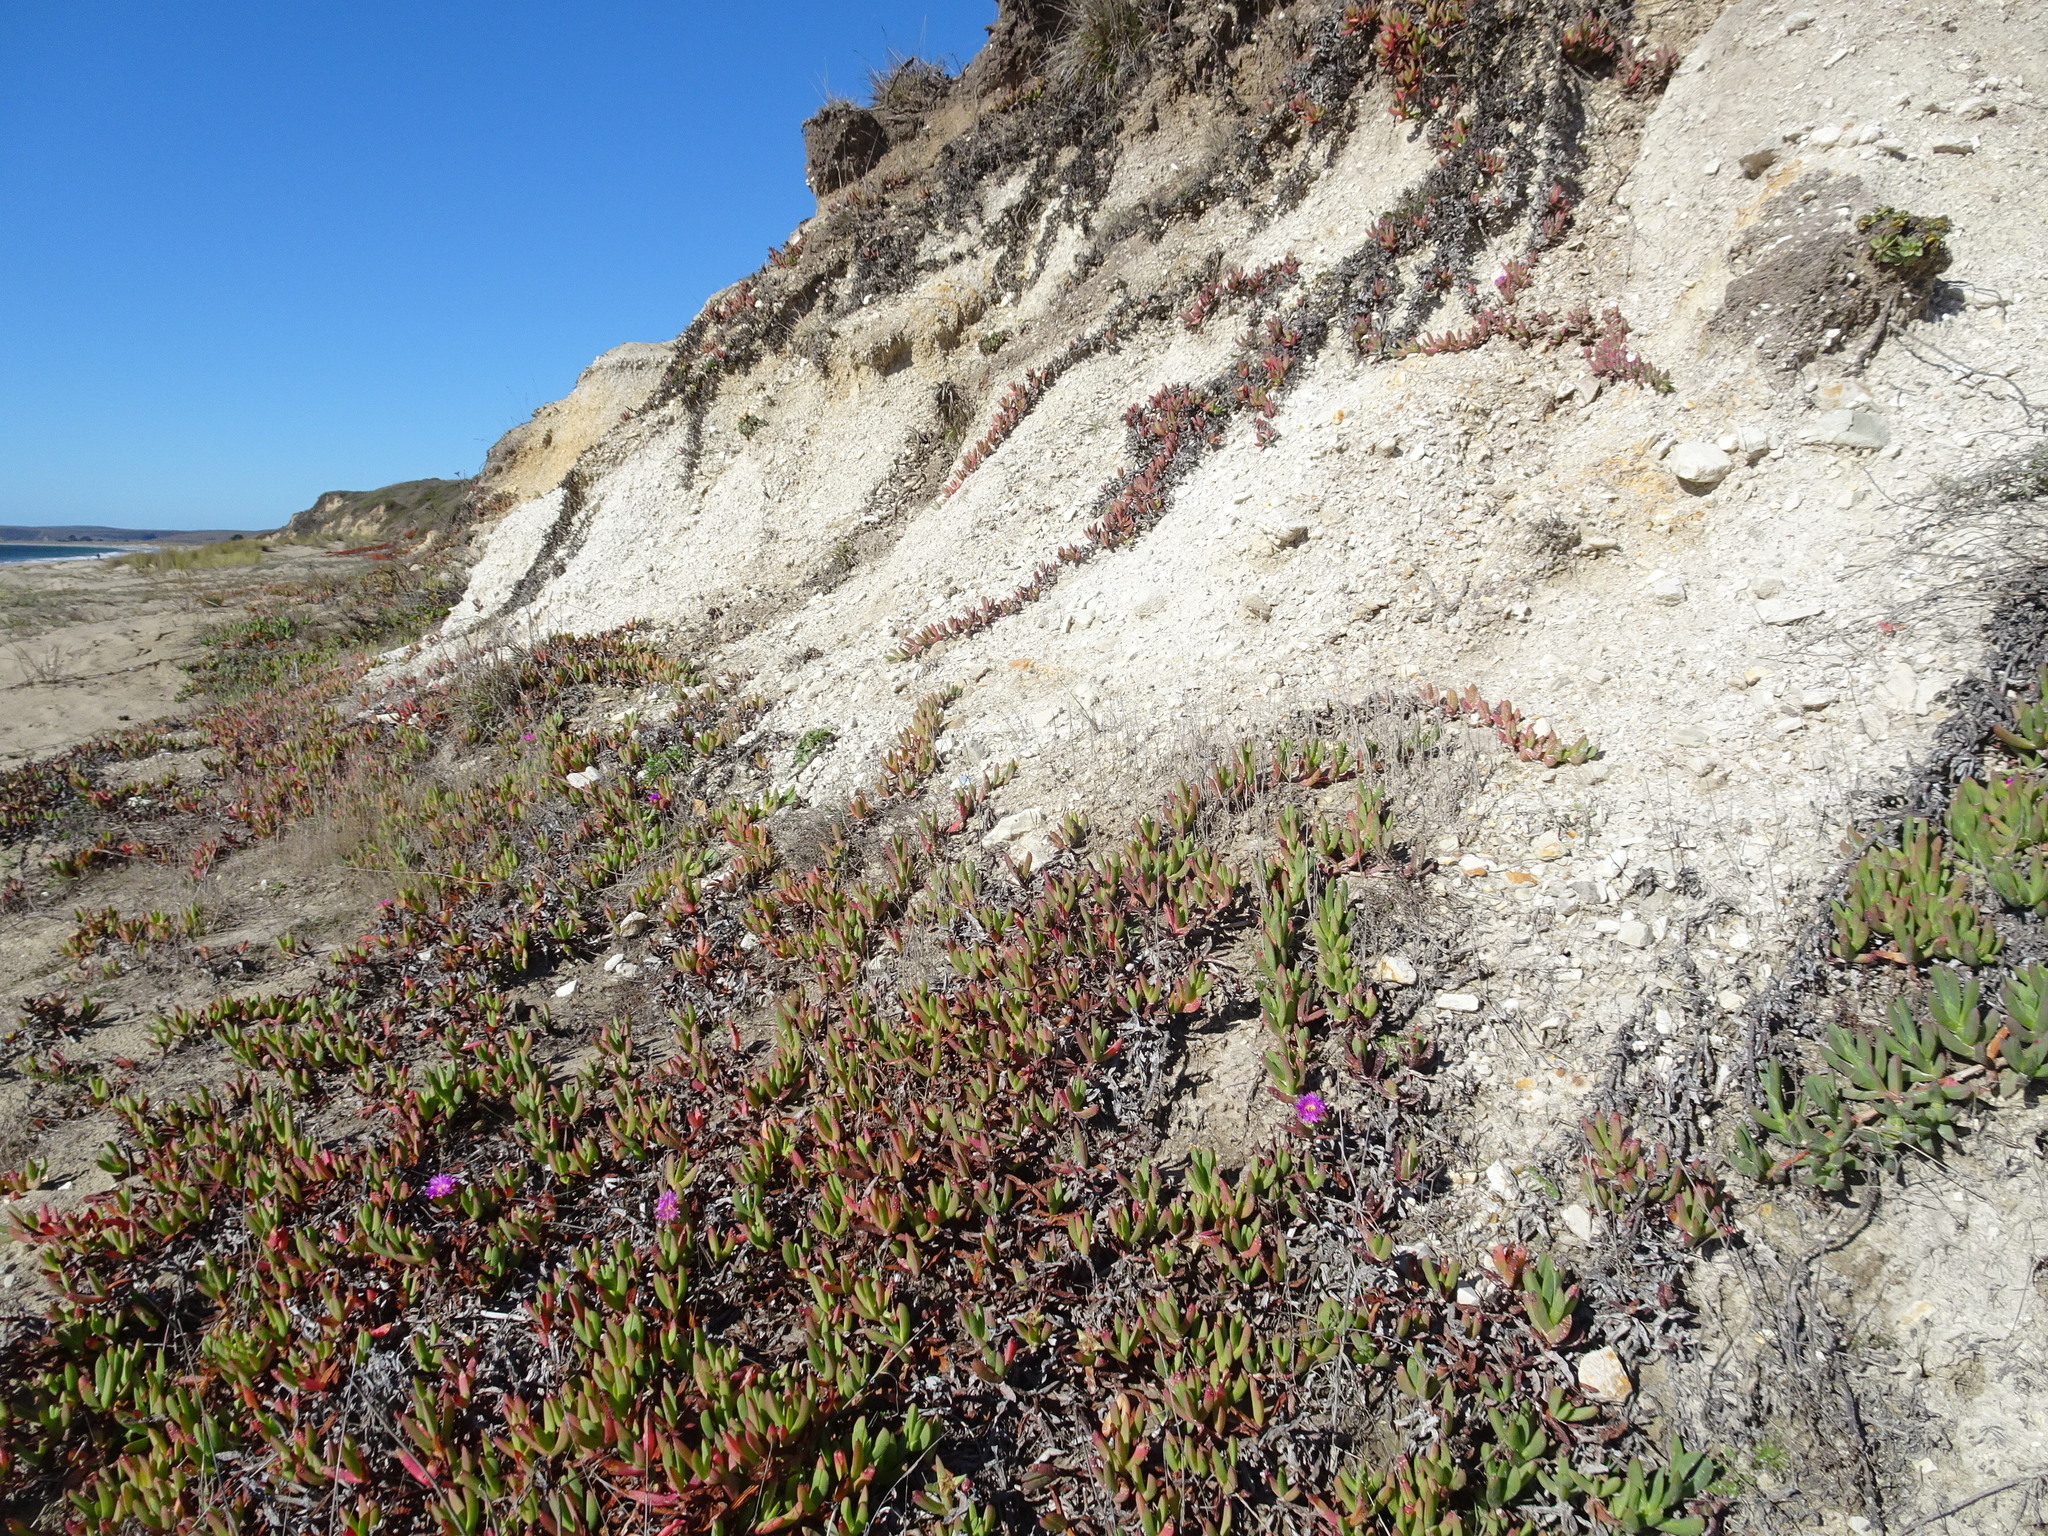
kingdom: Plantae
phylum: Tracheophyta
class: Magnoliopsida
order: Caryophyllales
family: Aizoaceae
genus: Carpobrotus
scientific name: Carpobrotus chilensis
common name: Sea fig
